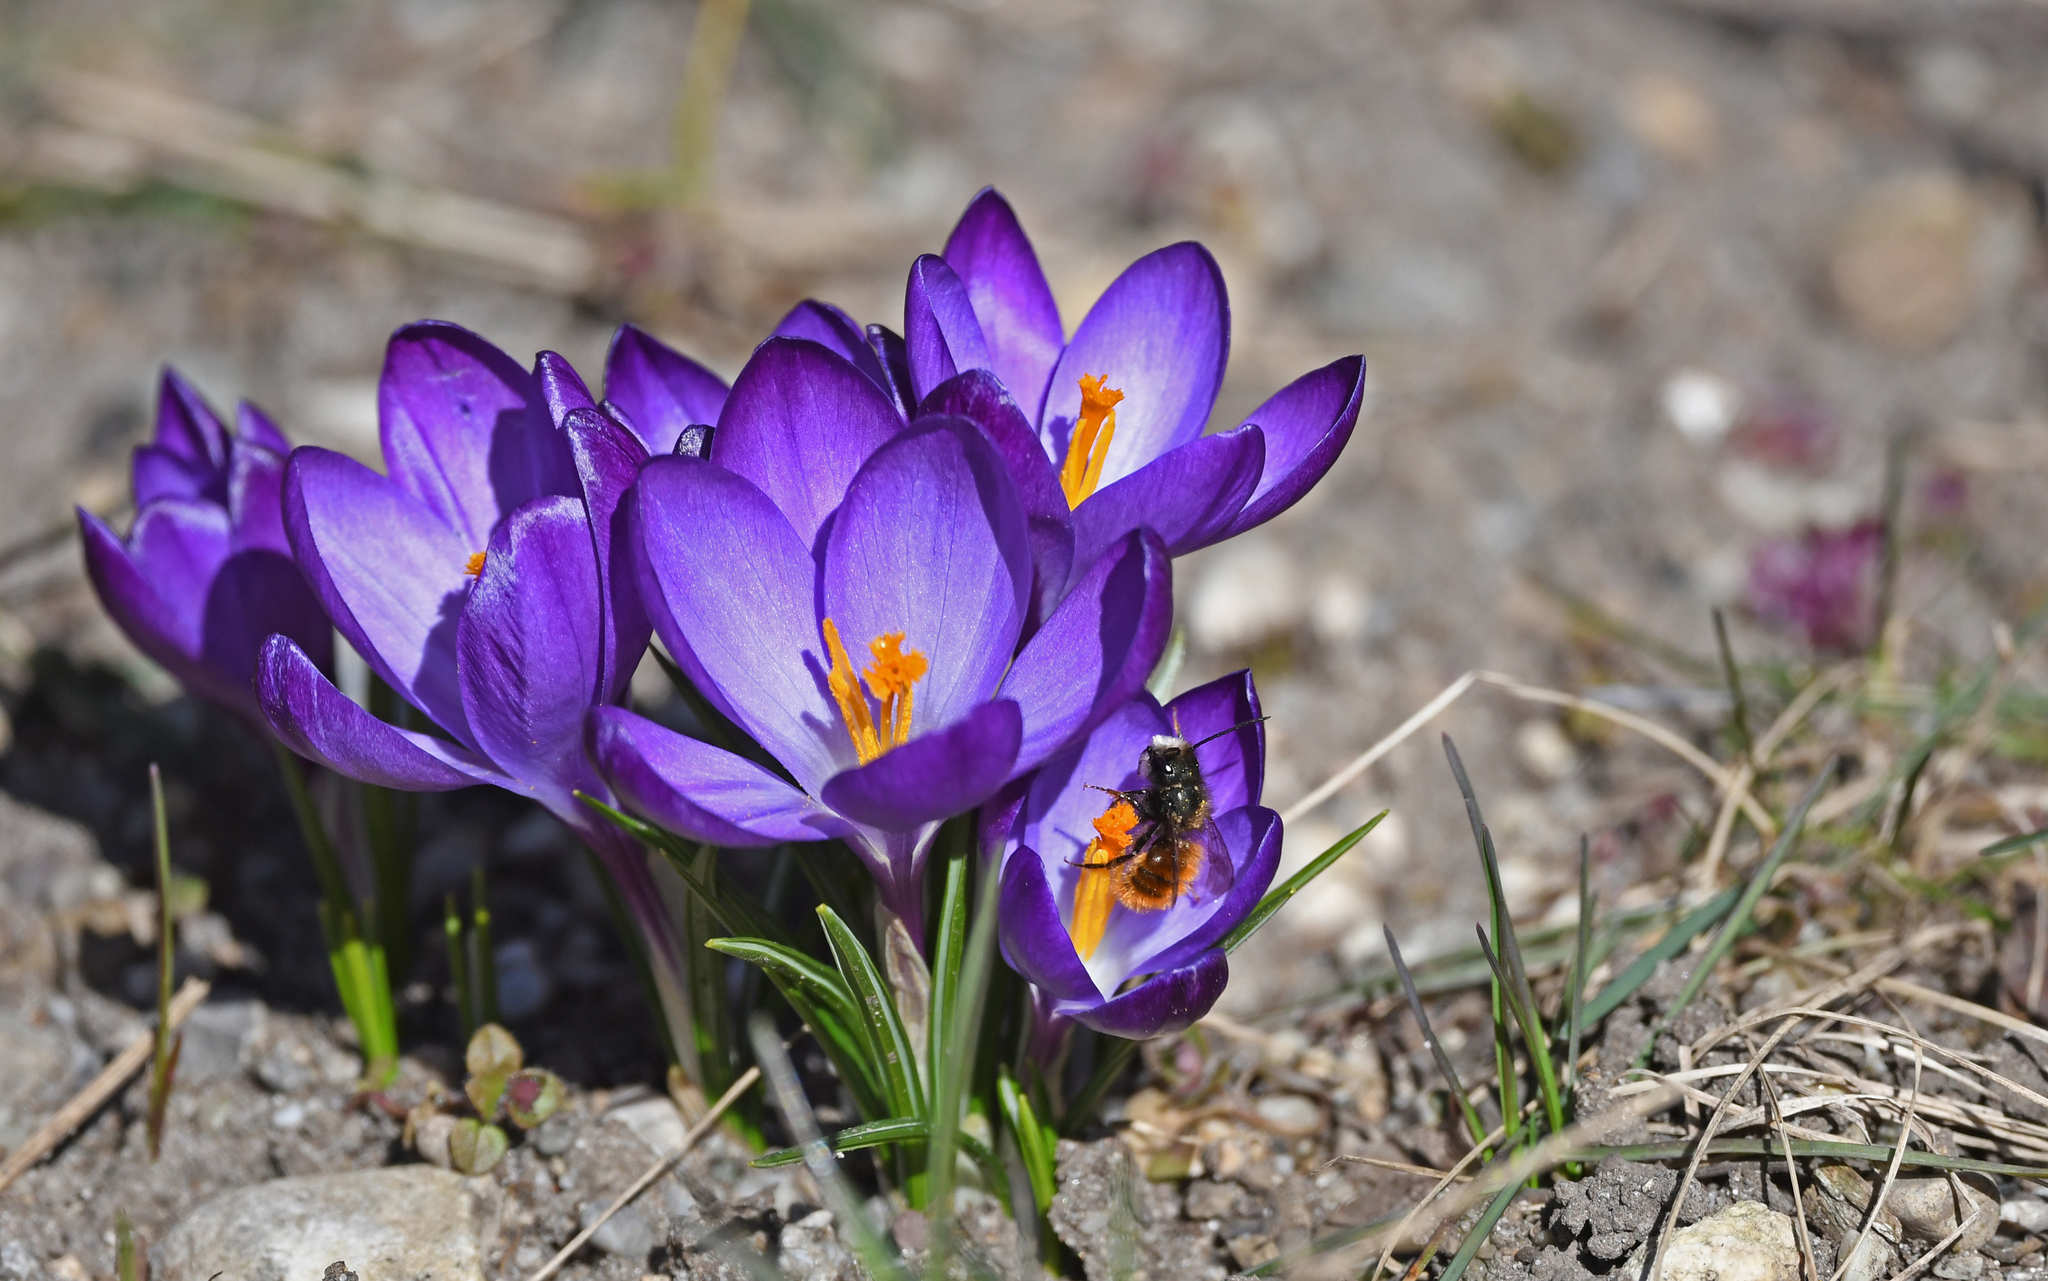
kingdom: Animalia
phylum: Arthropoda
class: Insecta
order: Hymenoptera
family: Megachilidae
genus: Osmia
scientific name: Osmia cornuta
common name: Mason bee
